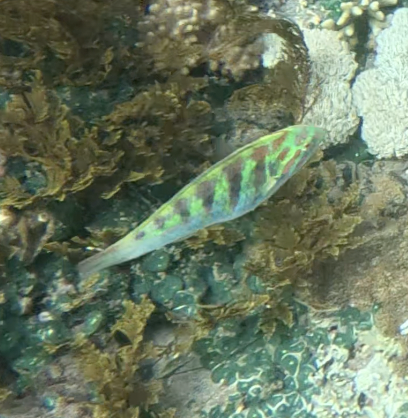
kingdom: Animalia
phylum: Chordata
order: Perciformes
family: Labridae
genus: Thalassoma
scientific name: Thalassoma hardwicke
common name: Sixbar wrasse
